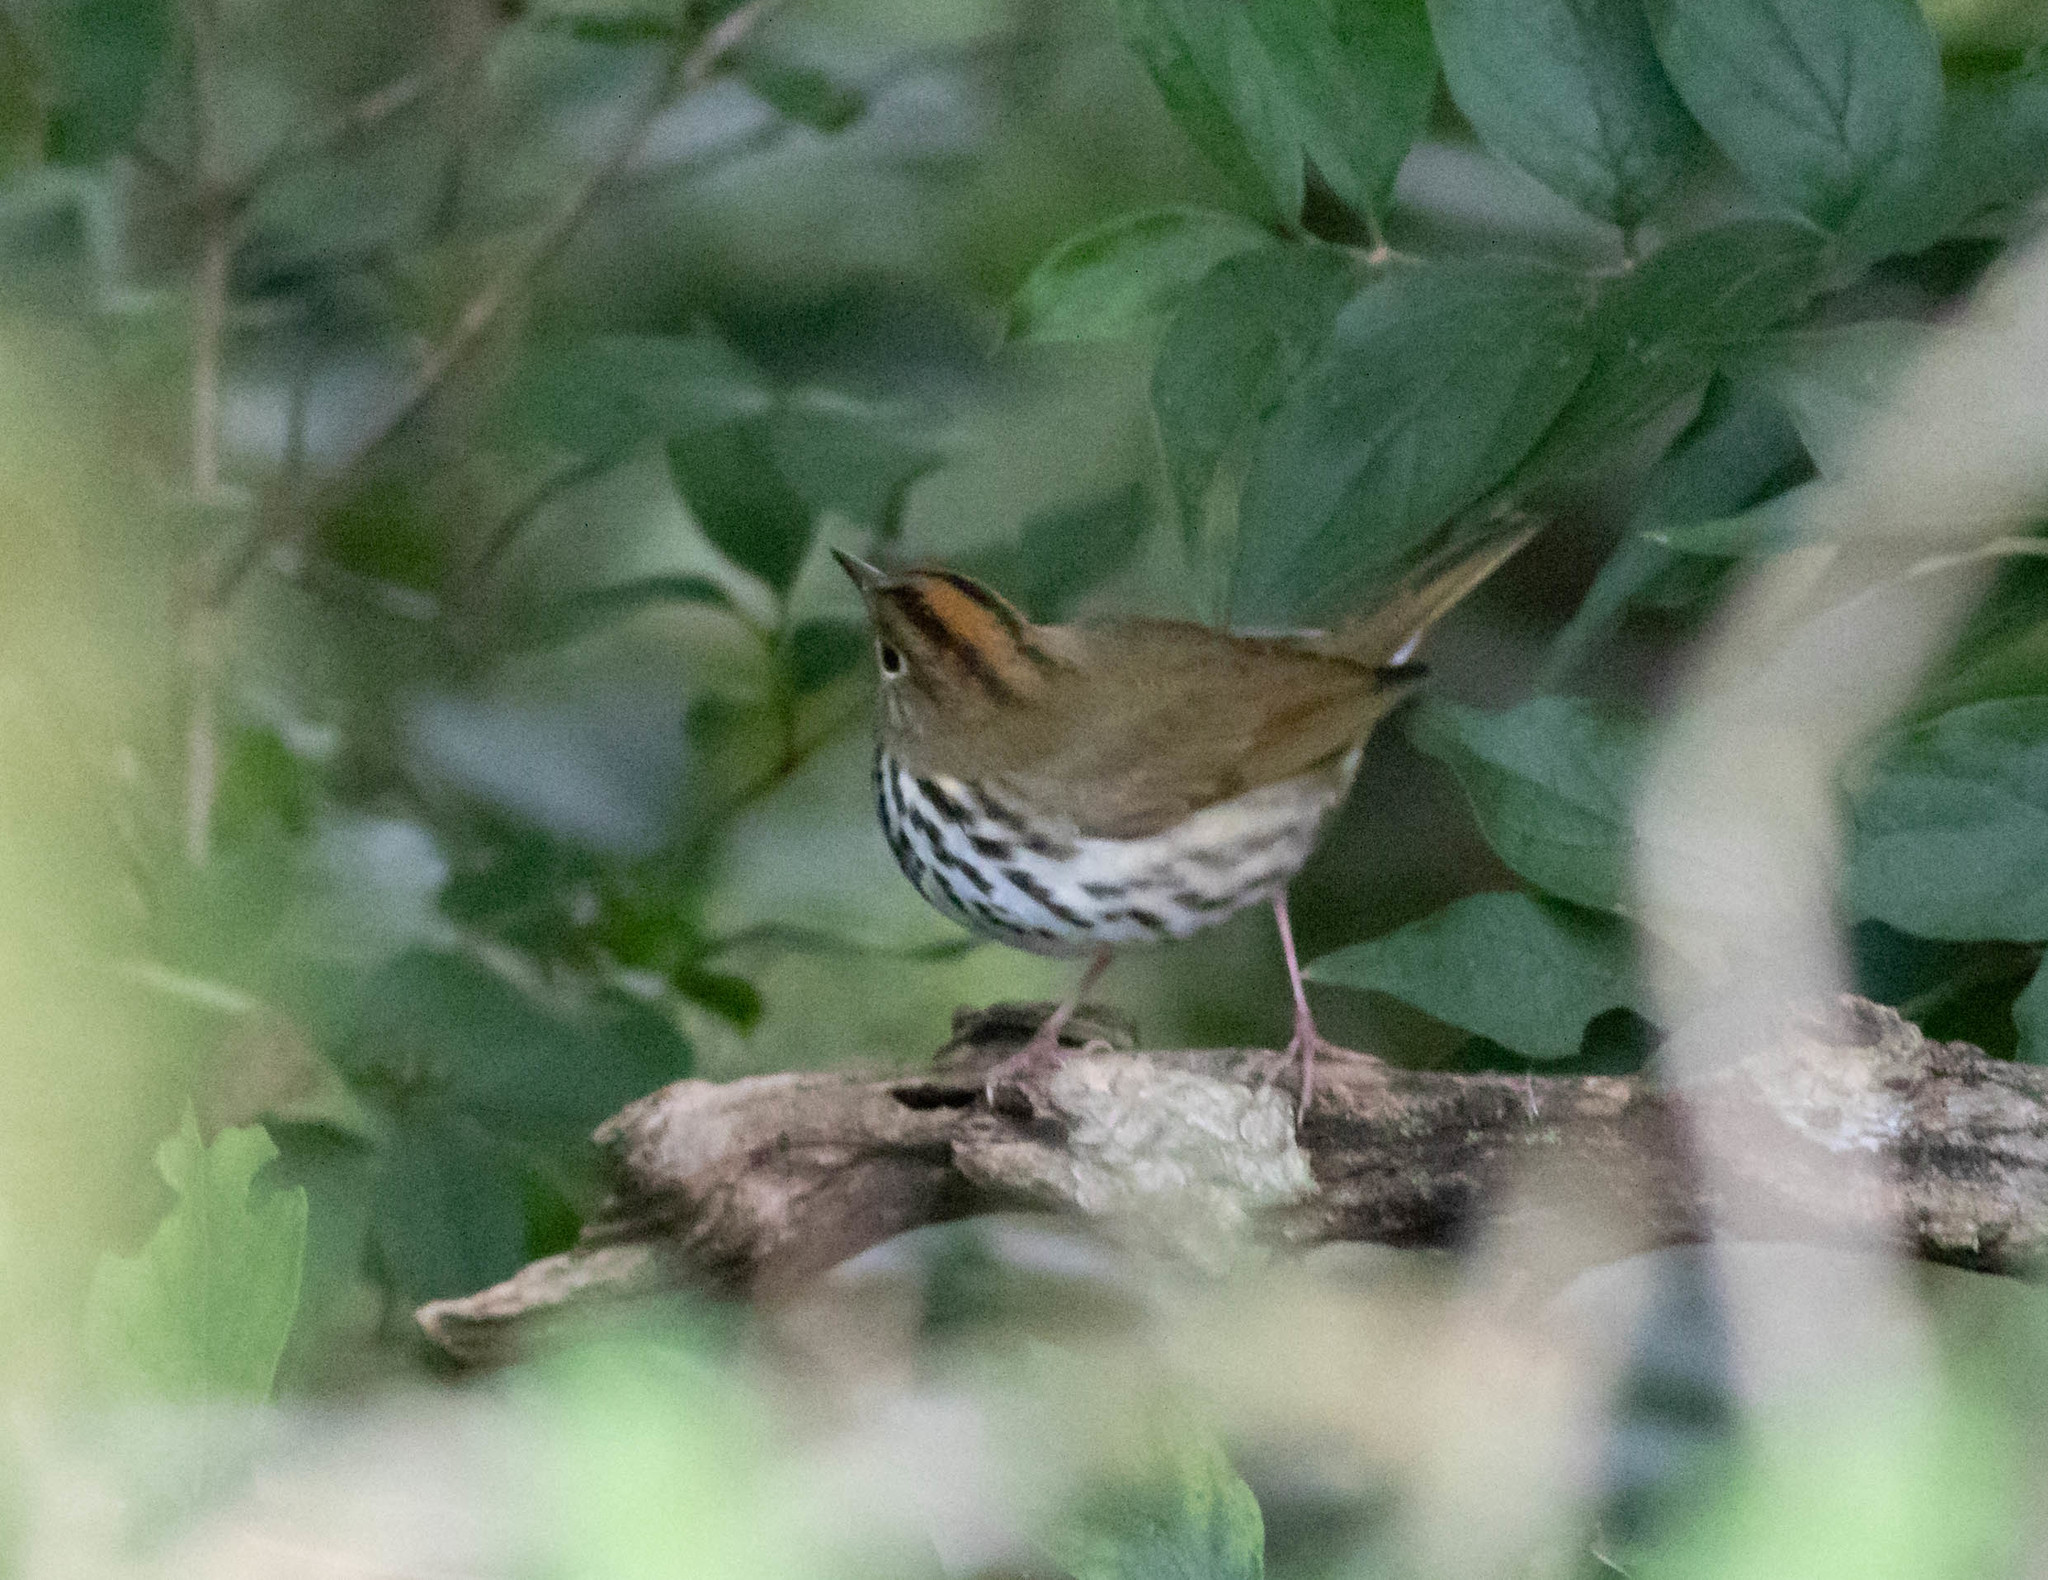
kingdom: Animalia
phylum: Chordata
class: Aves
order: Passeriformes
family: Parulidae
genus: Seiurus
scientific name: Seiurus aurocapilla
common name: Ovenbird
